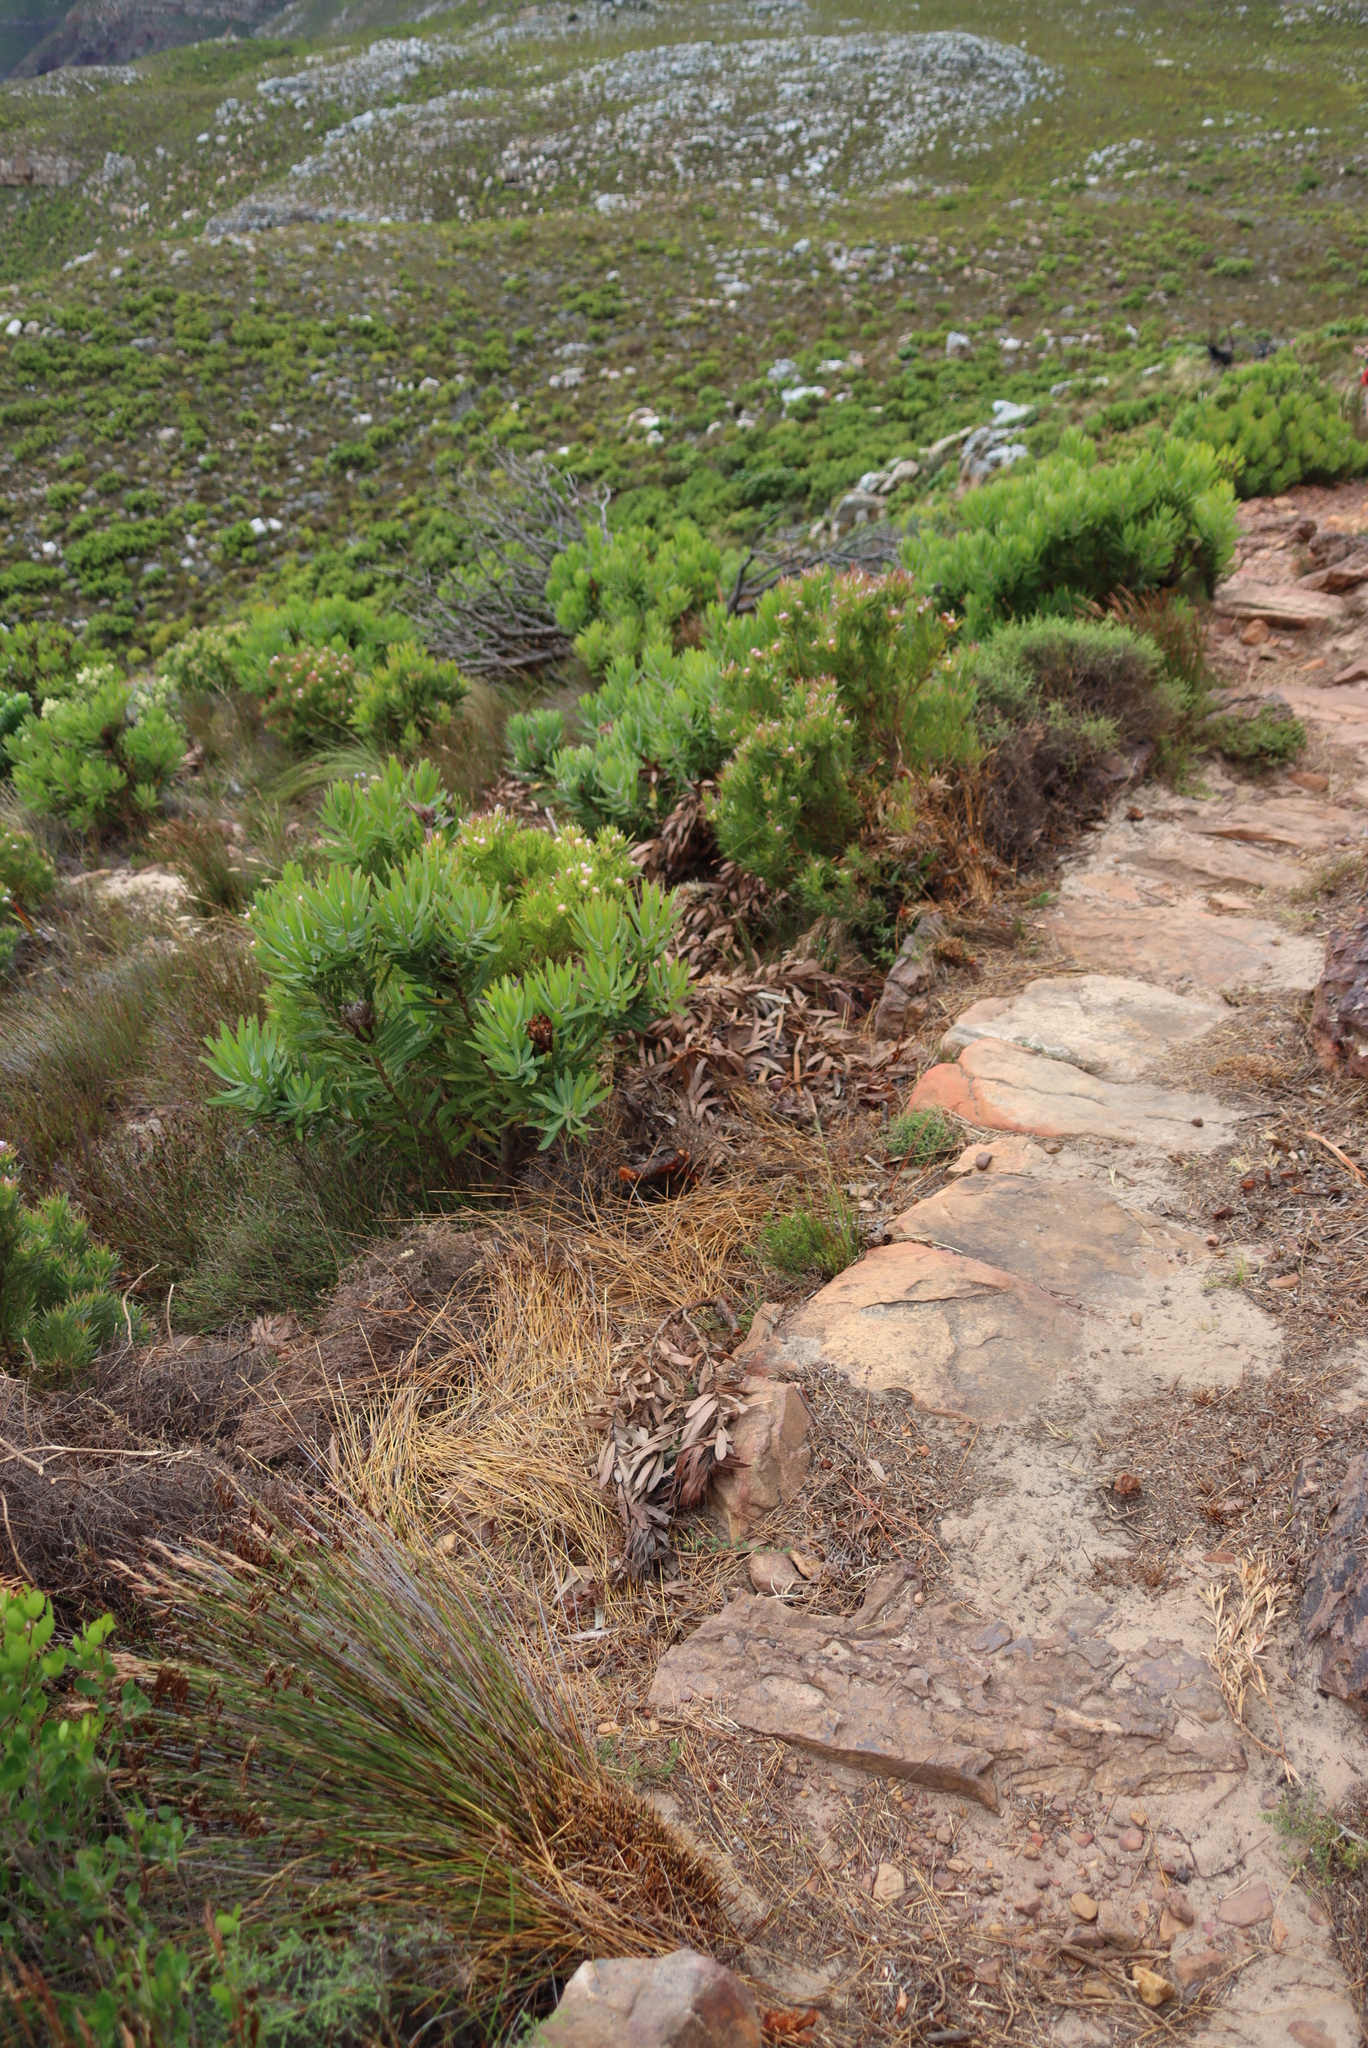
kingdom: Plantae
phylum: Tracheophyta
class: Magnoliopsida
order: Proteales
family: Proteaceae
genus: Protea
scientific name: Protea lepidocarpodendron
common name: Black-bearded protea
